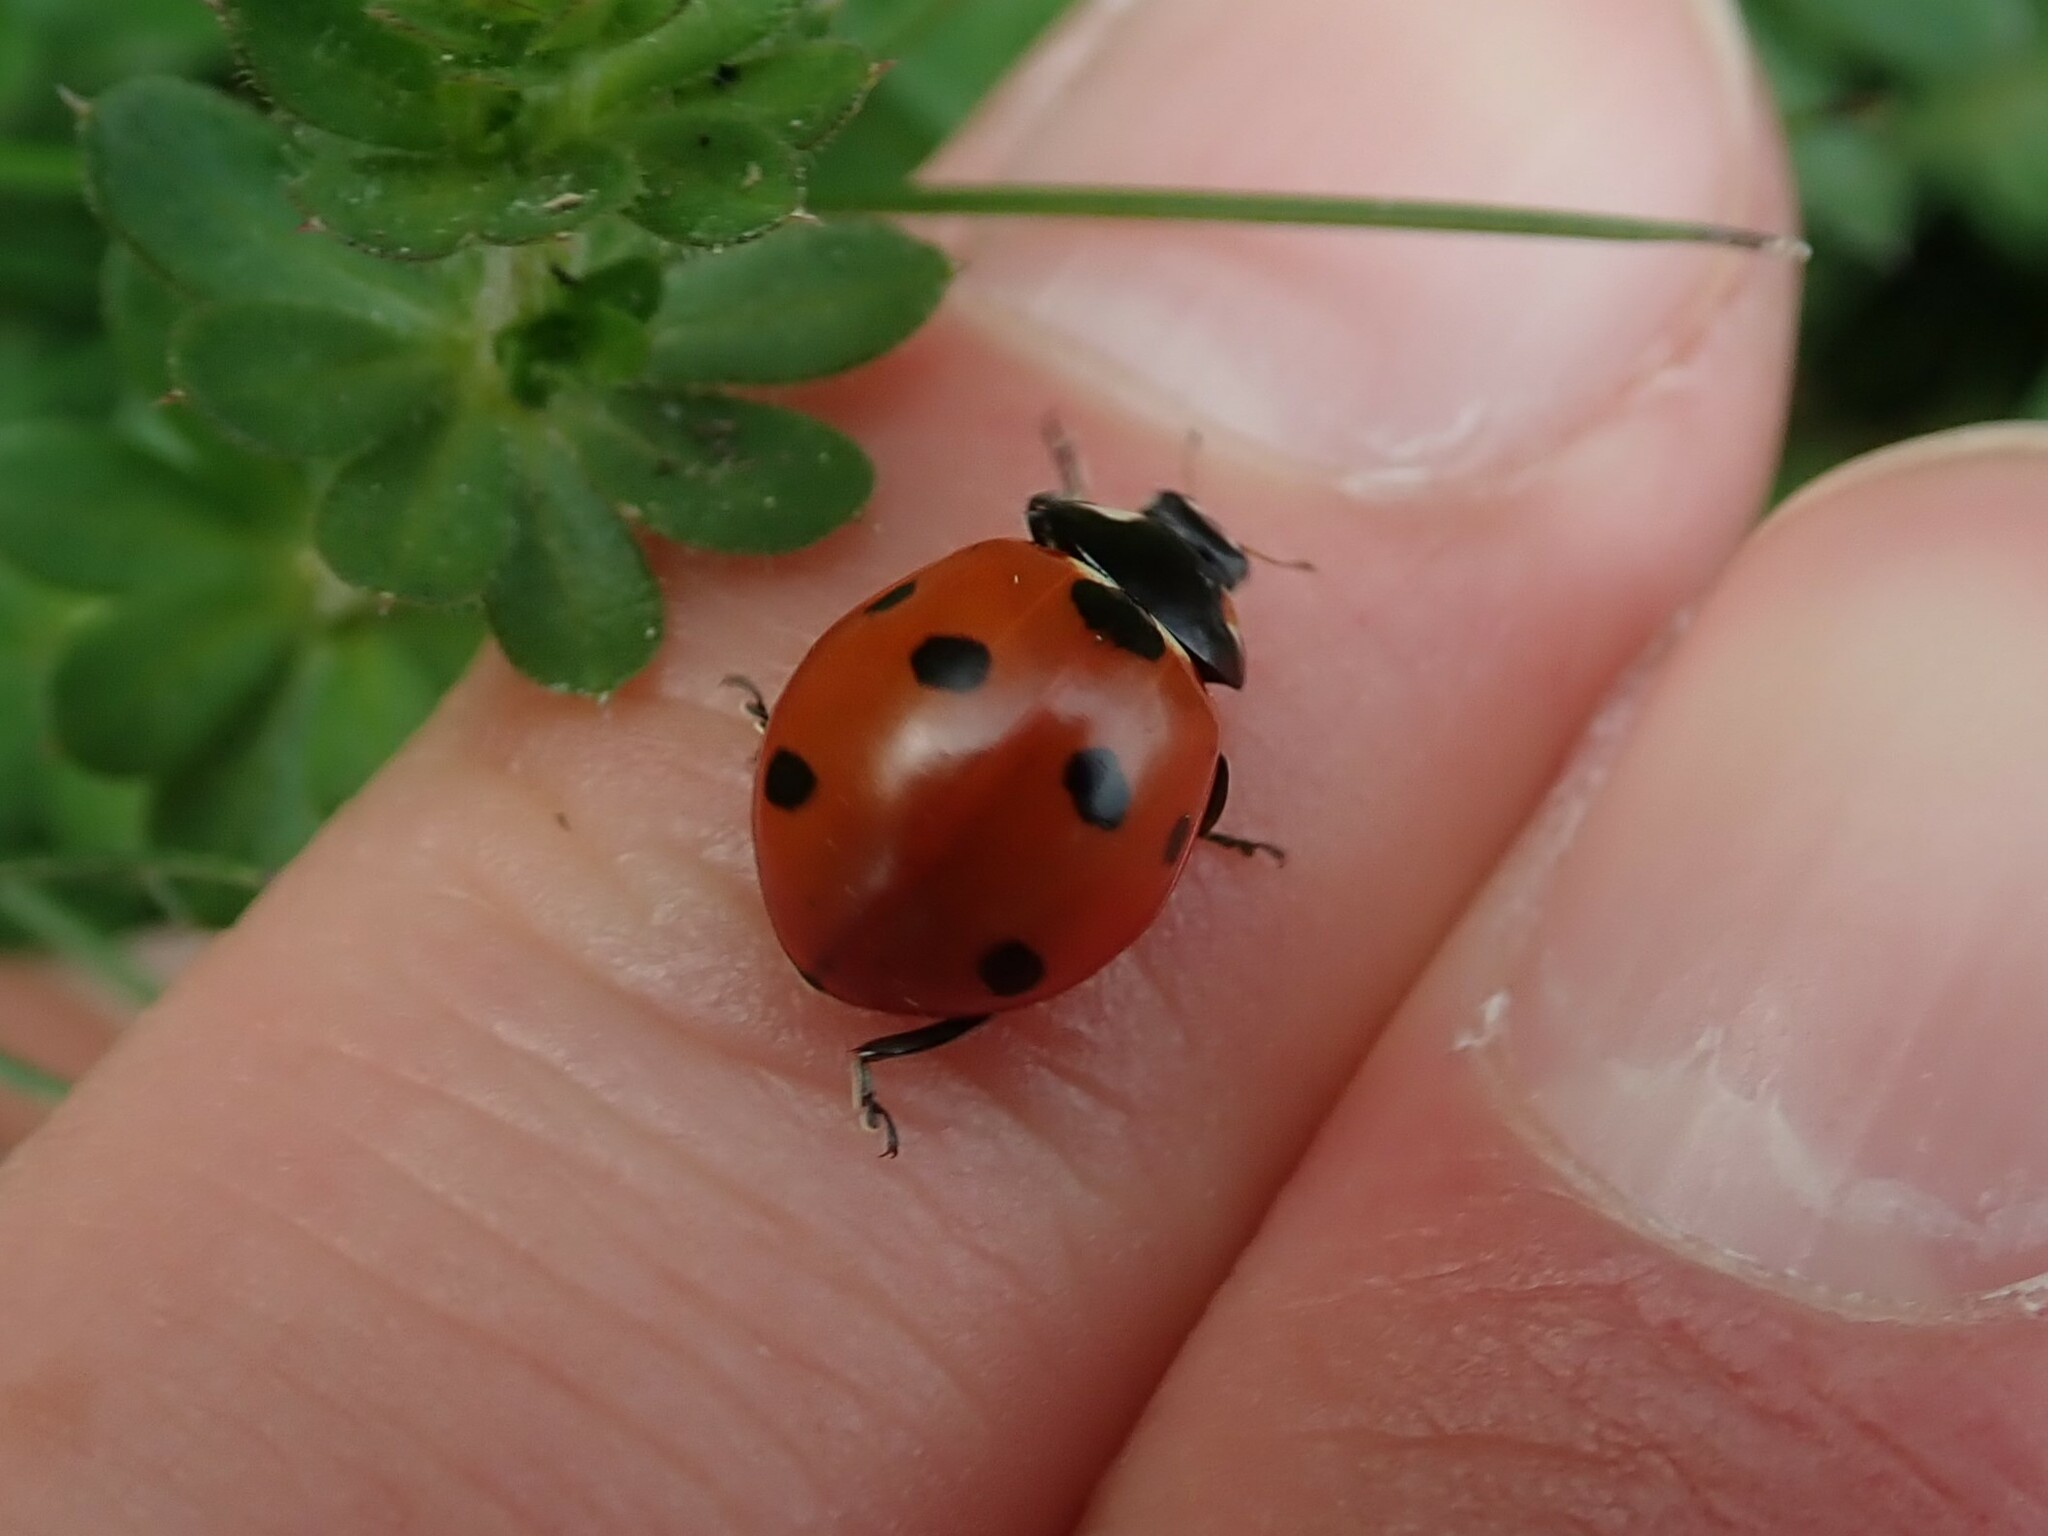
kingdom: Animalia
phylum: Arthropoda
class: Insecta
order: Coleoptera
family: Coccinellidae
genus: Coccinella
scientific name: Coccinella septempunctata
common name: Sevenspotted lady beetle
